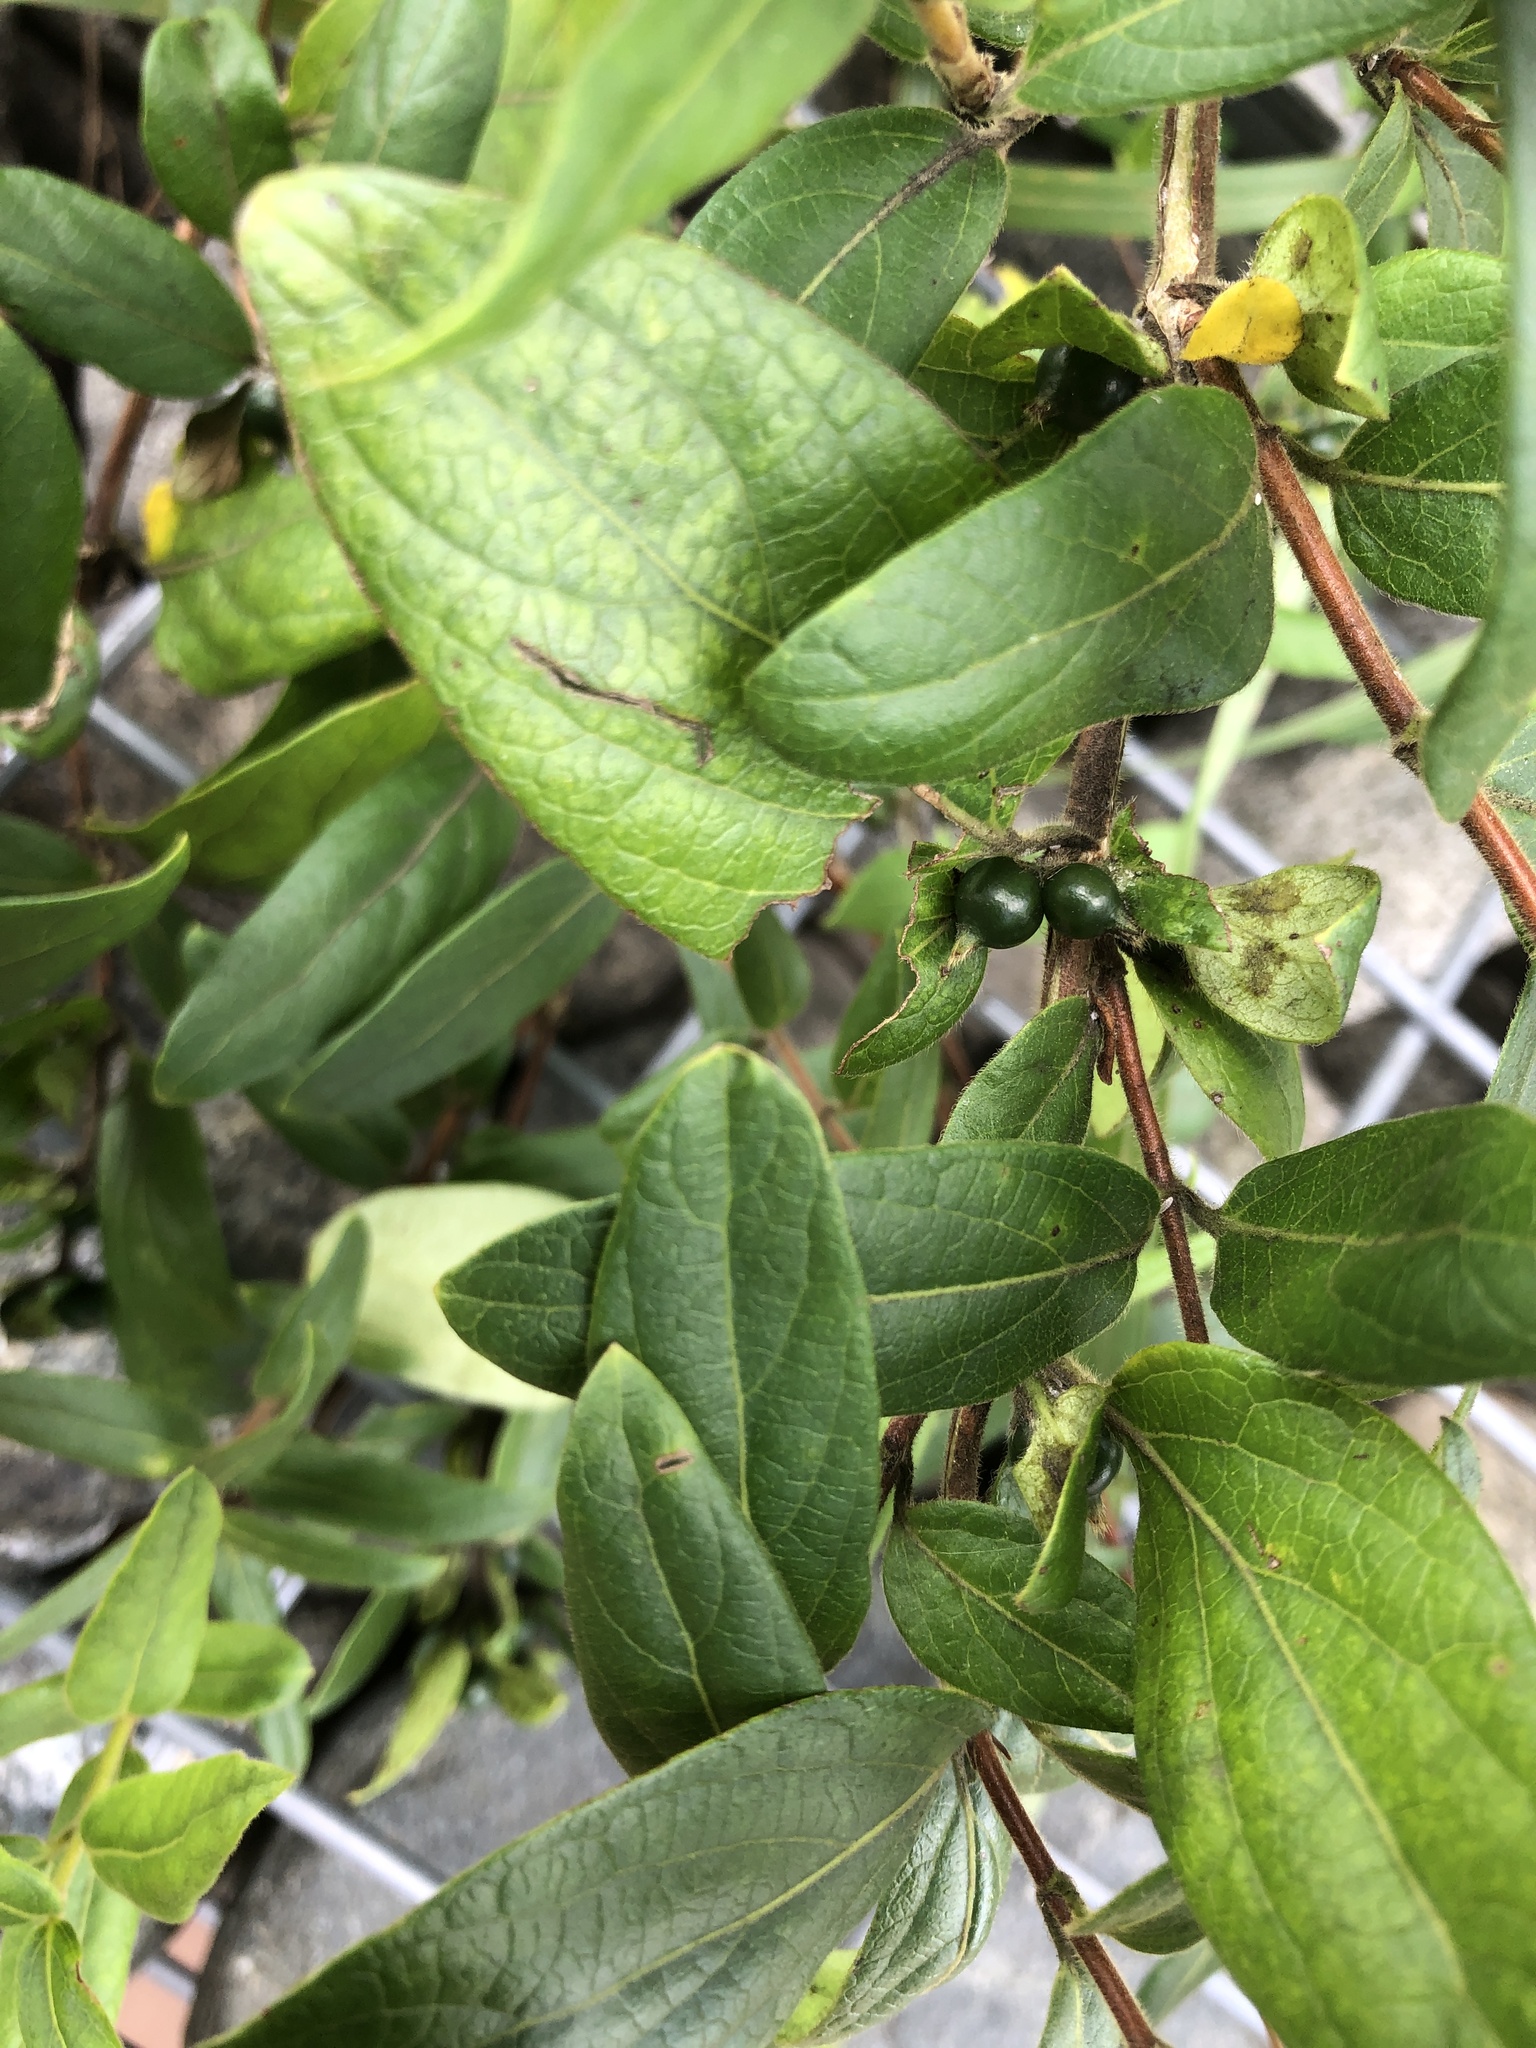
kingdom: Plantae
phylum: Tracheophyta
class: Magnoliopsida
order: Dipsacales
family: Caprifoliaceae
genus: Lonicera
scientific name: Lonicera japonica
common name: Japanese honeysuckle
